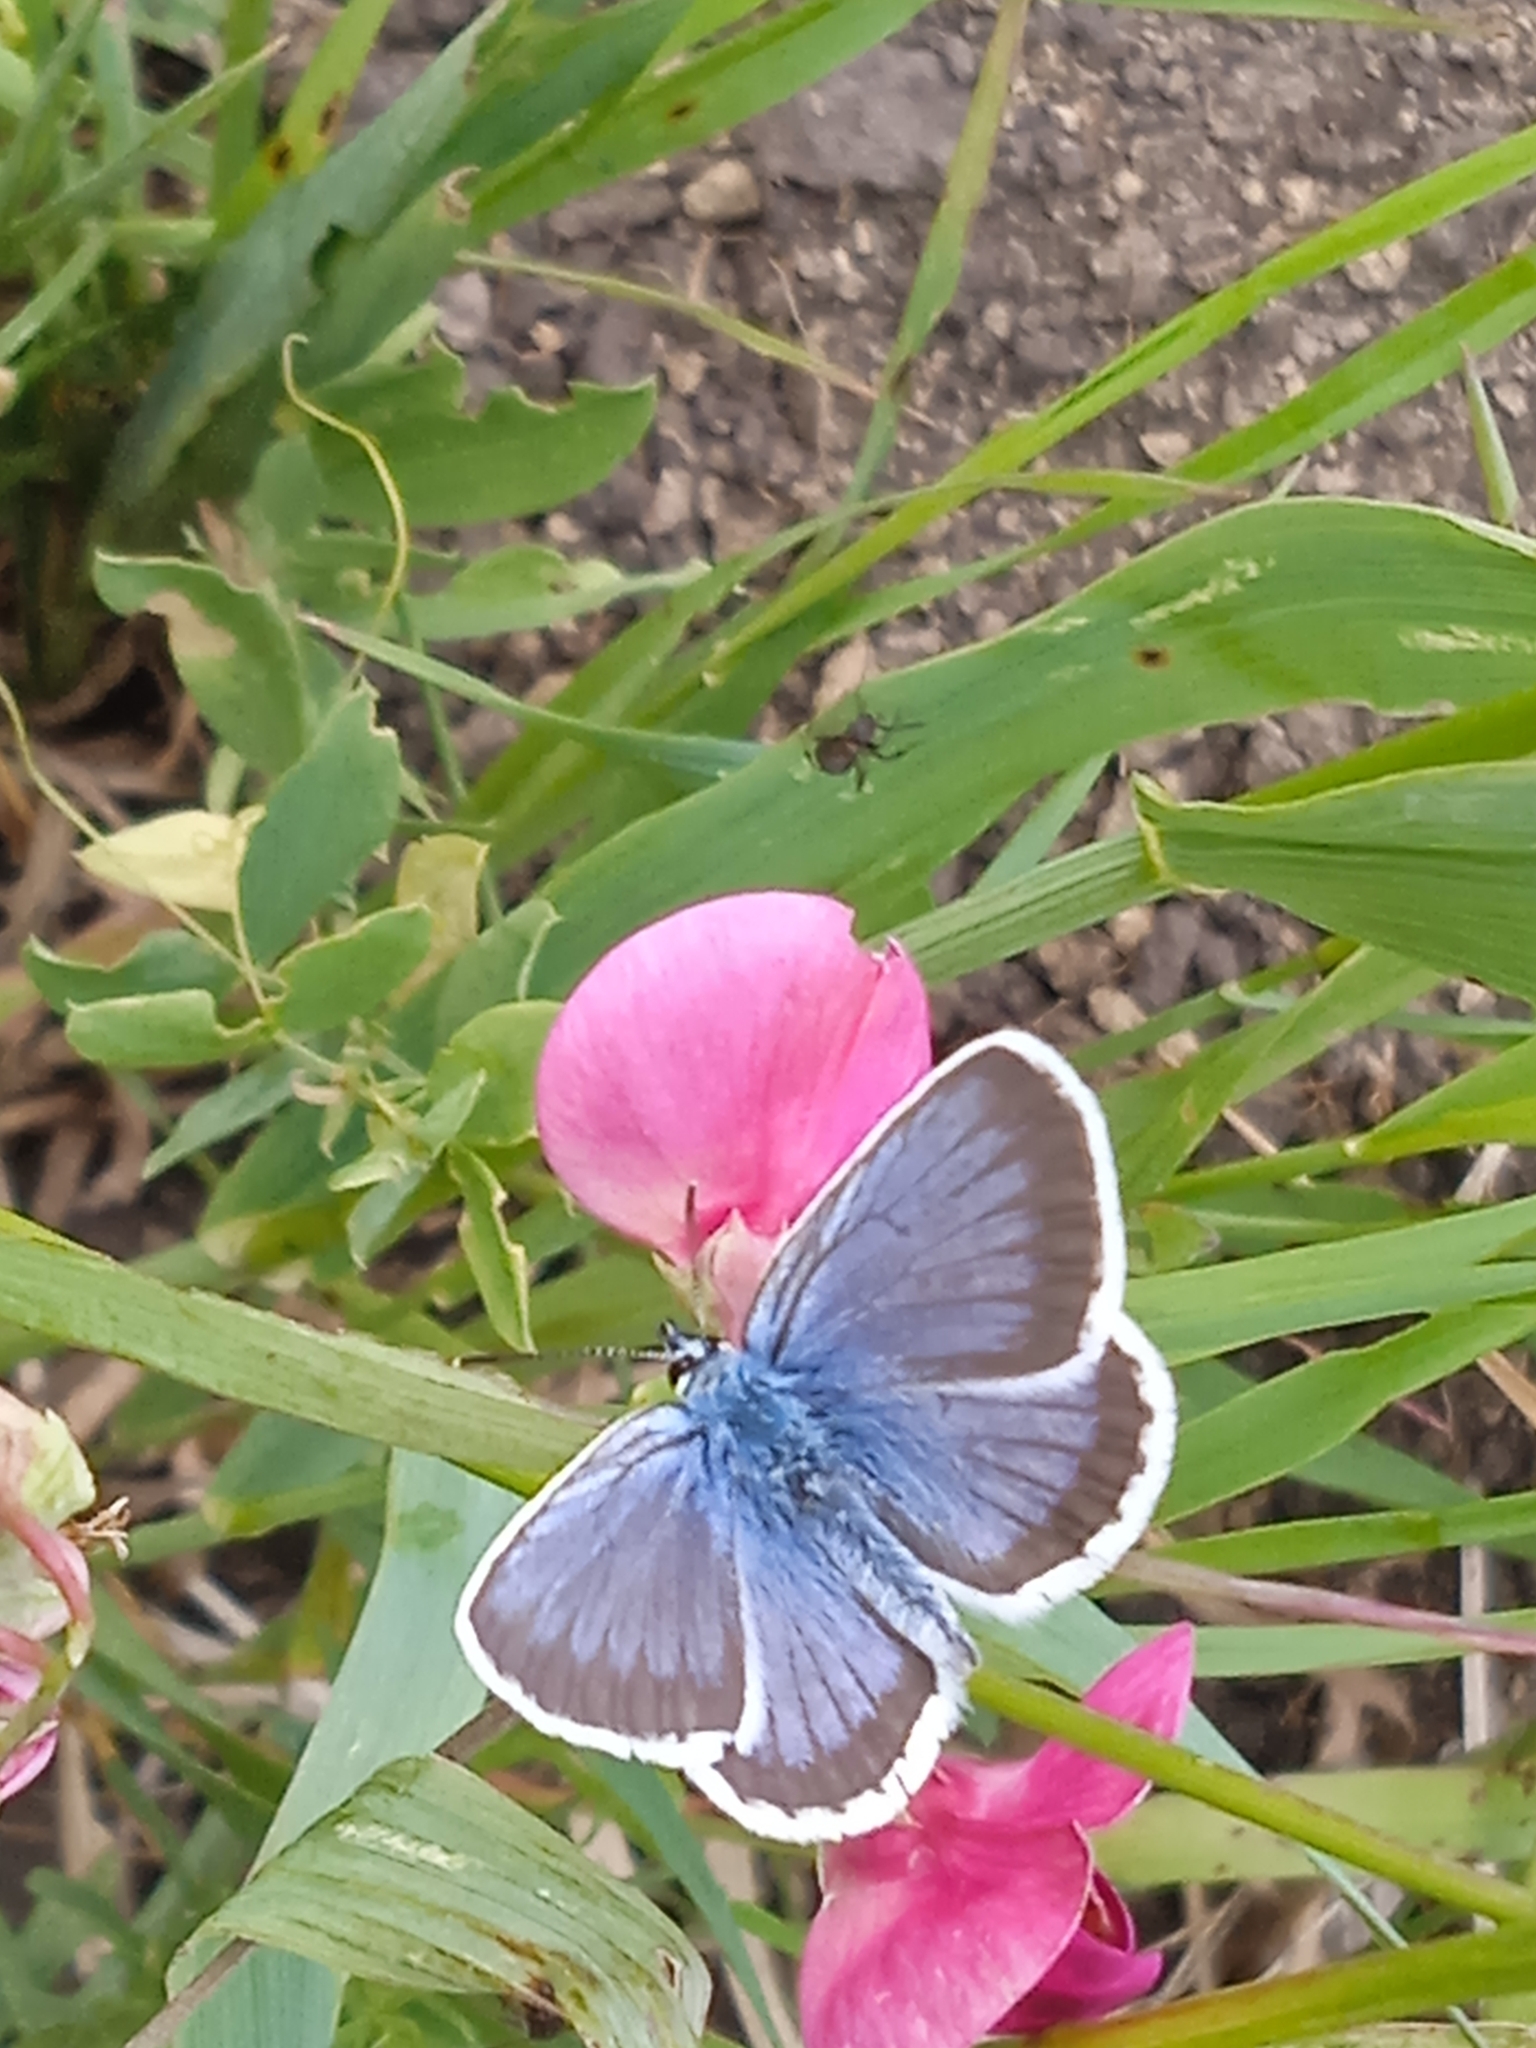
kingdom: Animalia
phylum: Arthropoda
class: Insecta
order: Lepidoptera
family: Lycaenidae
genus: Plebejus
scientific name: Plebejus argus
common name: Silver-studded blue
